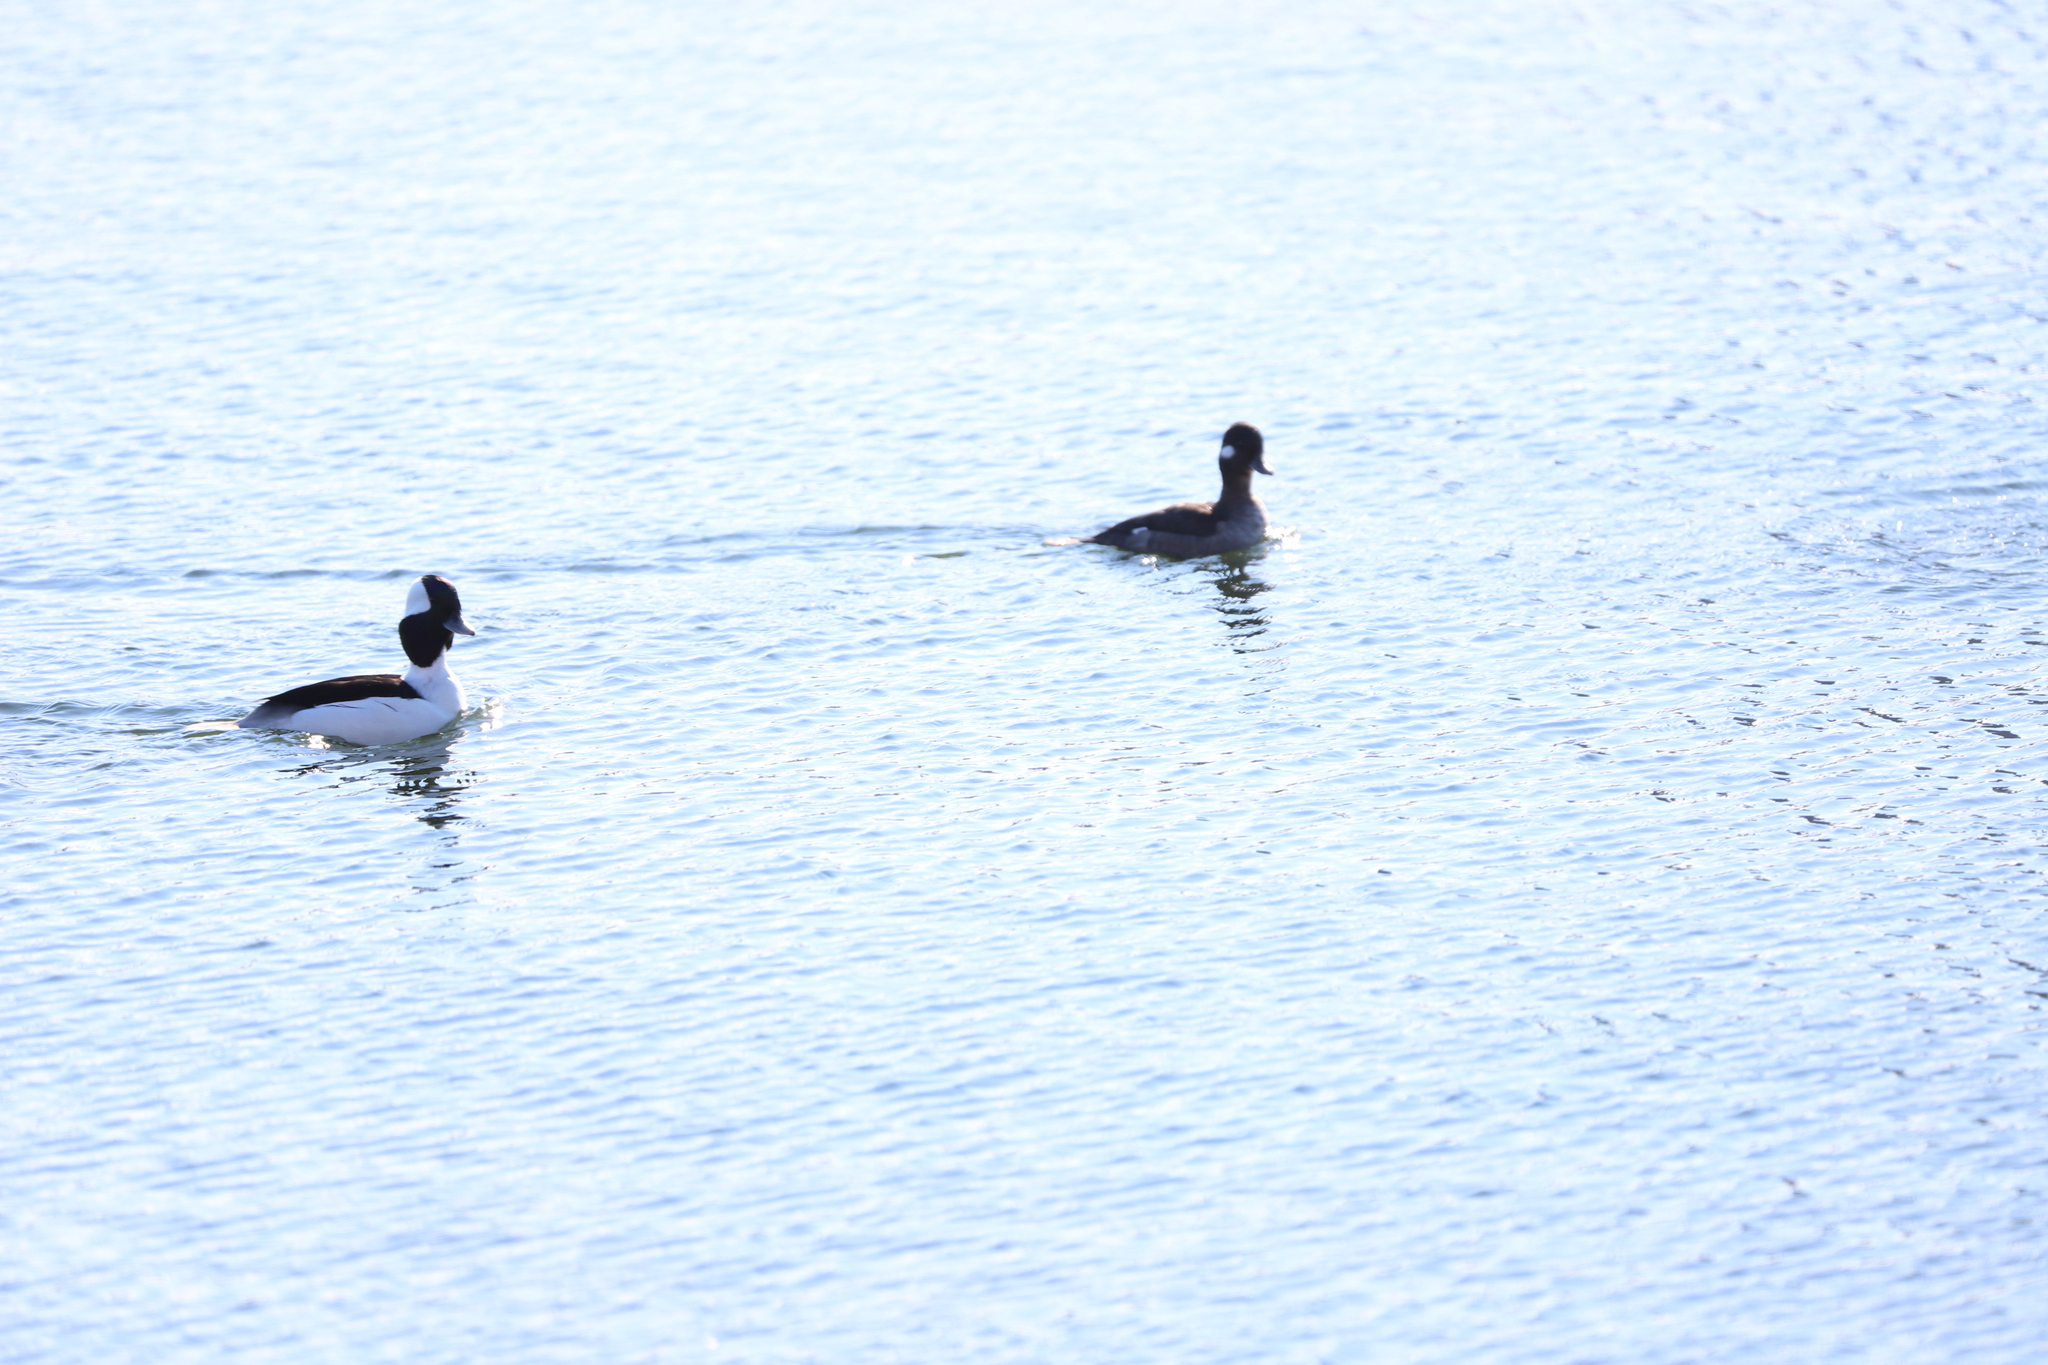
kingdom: Animalia
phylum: Chordata
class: Aves
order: Anseriformes
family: Anatidae
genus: Bucephala
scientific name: Bucephala albeola
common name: Bufflehead
